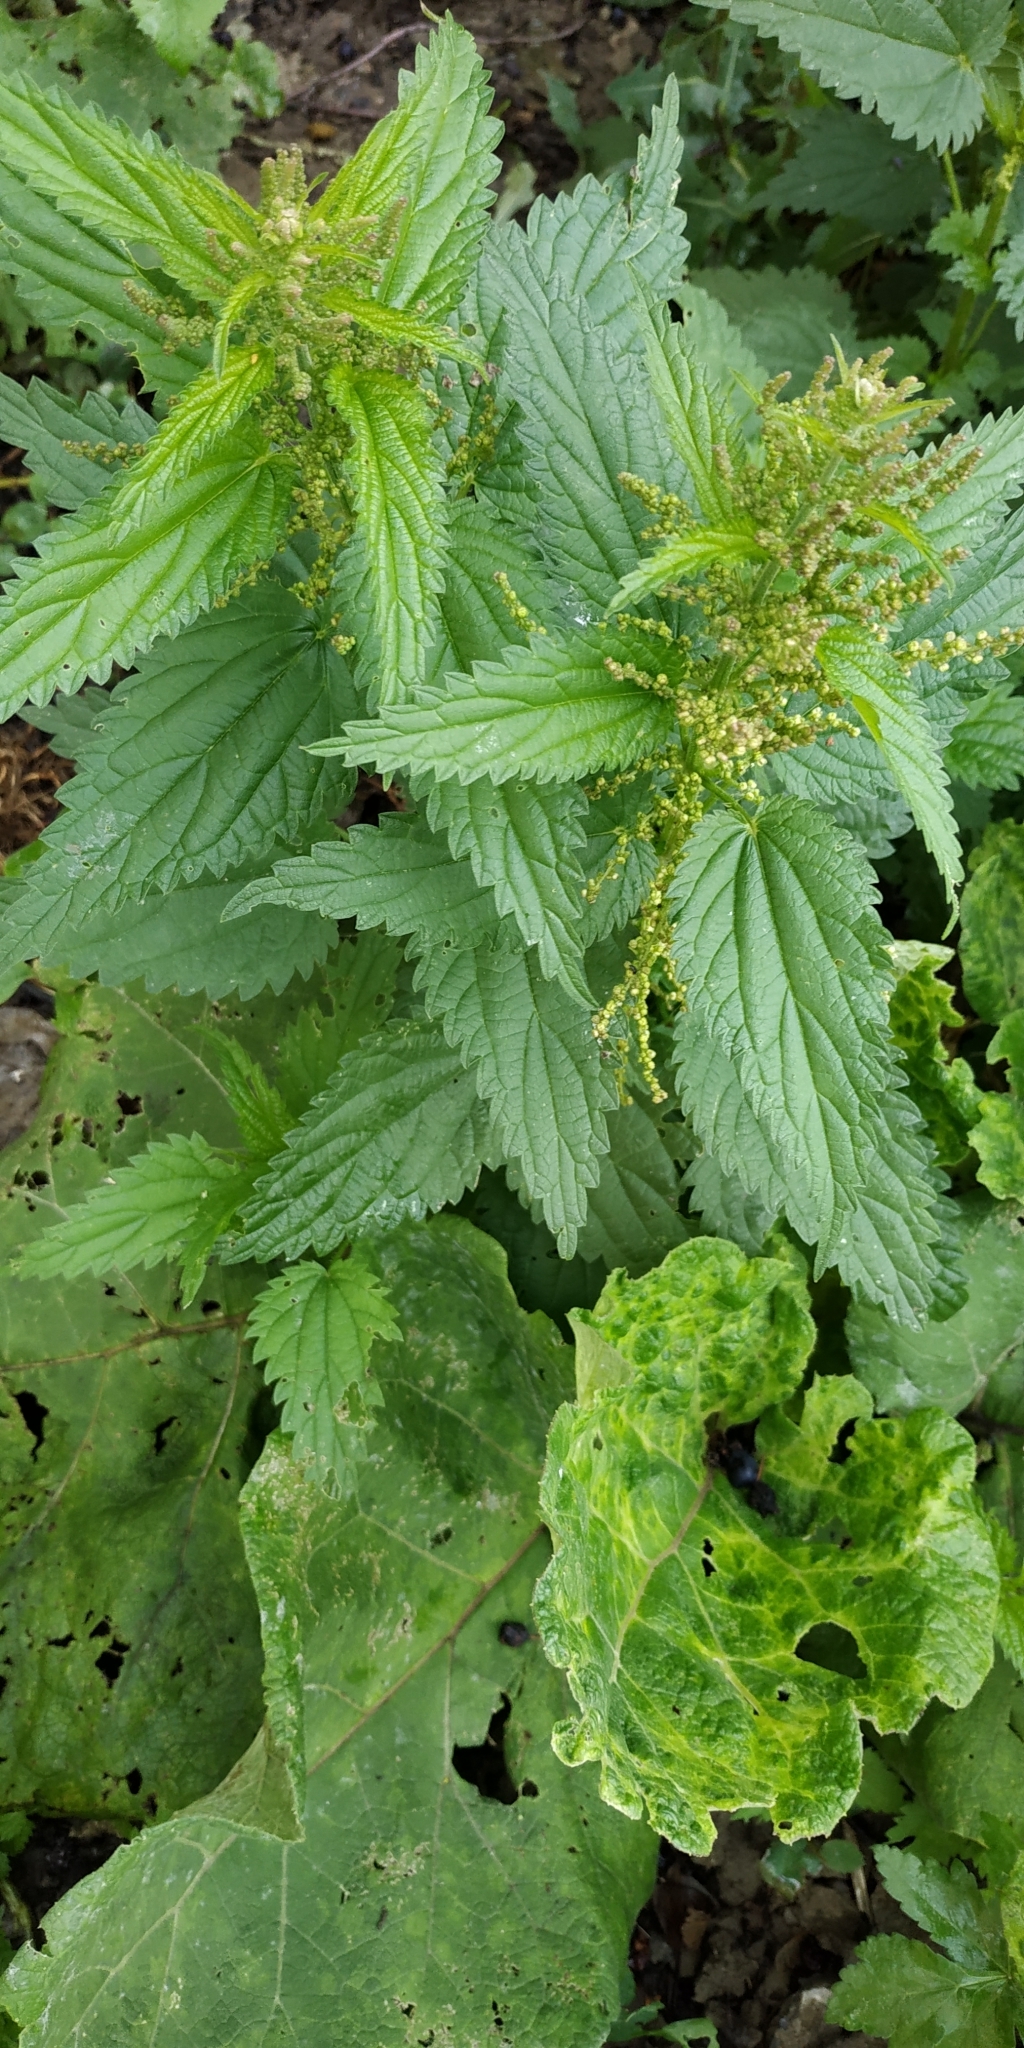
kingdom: Plantae
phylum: Tracheophyta
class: Magnoliopsida
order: Rosales
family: Urticaceae
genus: Urtica
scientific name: Urtica dioica
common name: Common nettle
